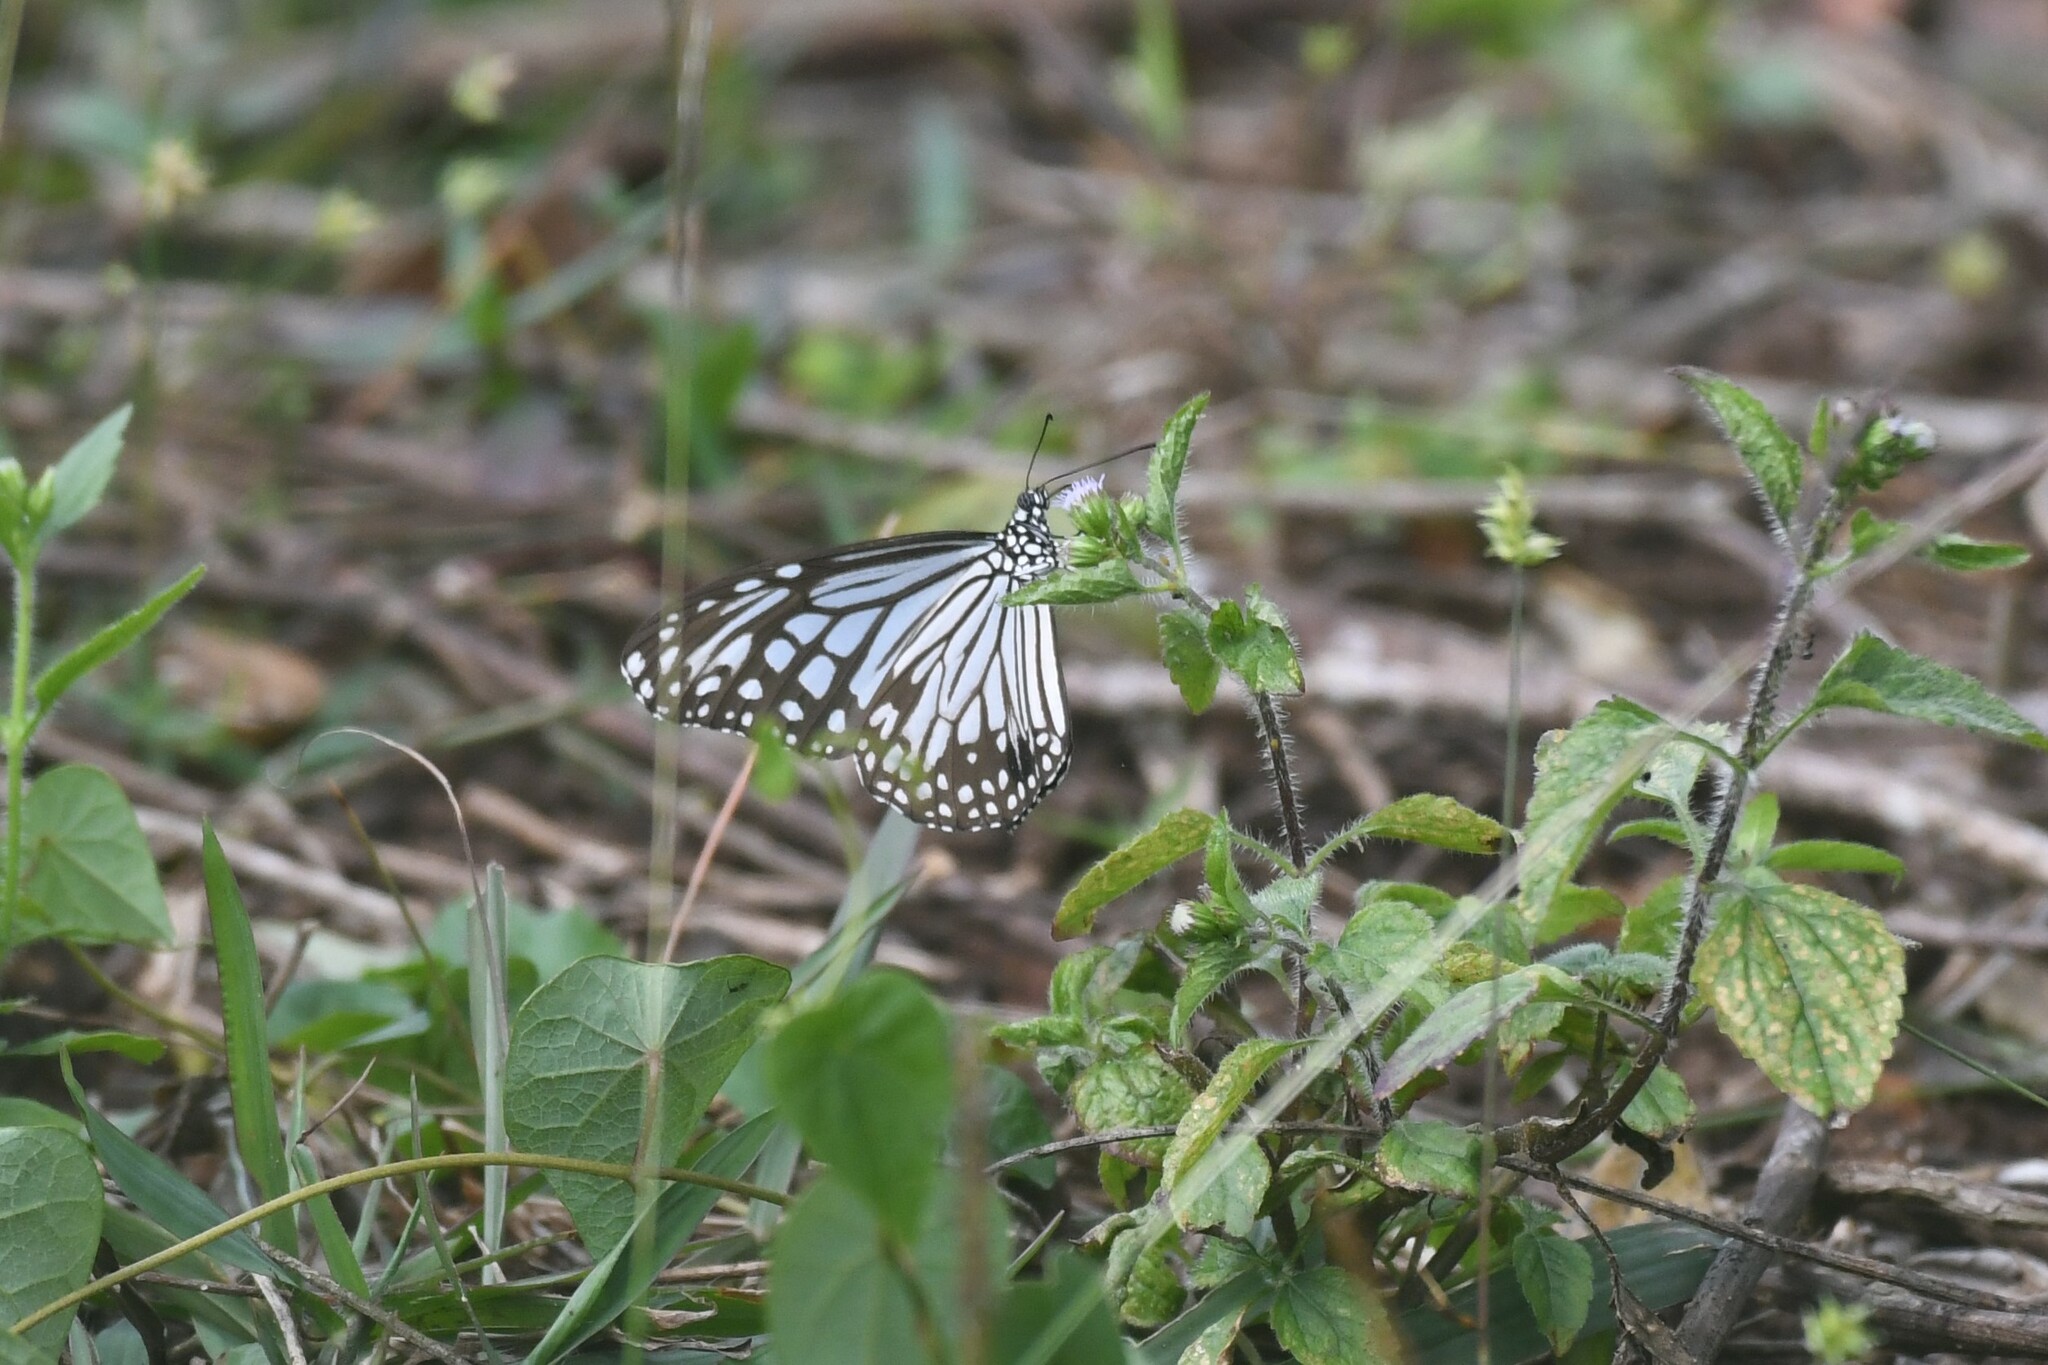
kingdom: Animalia
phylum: Arthropoda
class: Insecta
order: Lepidoptera
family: Nymphalidae
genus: Parantica
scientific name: Parantica aglea
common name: Glassy tiger
